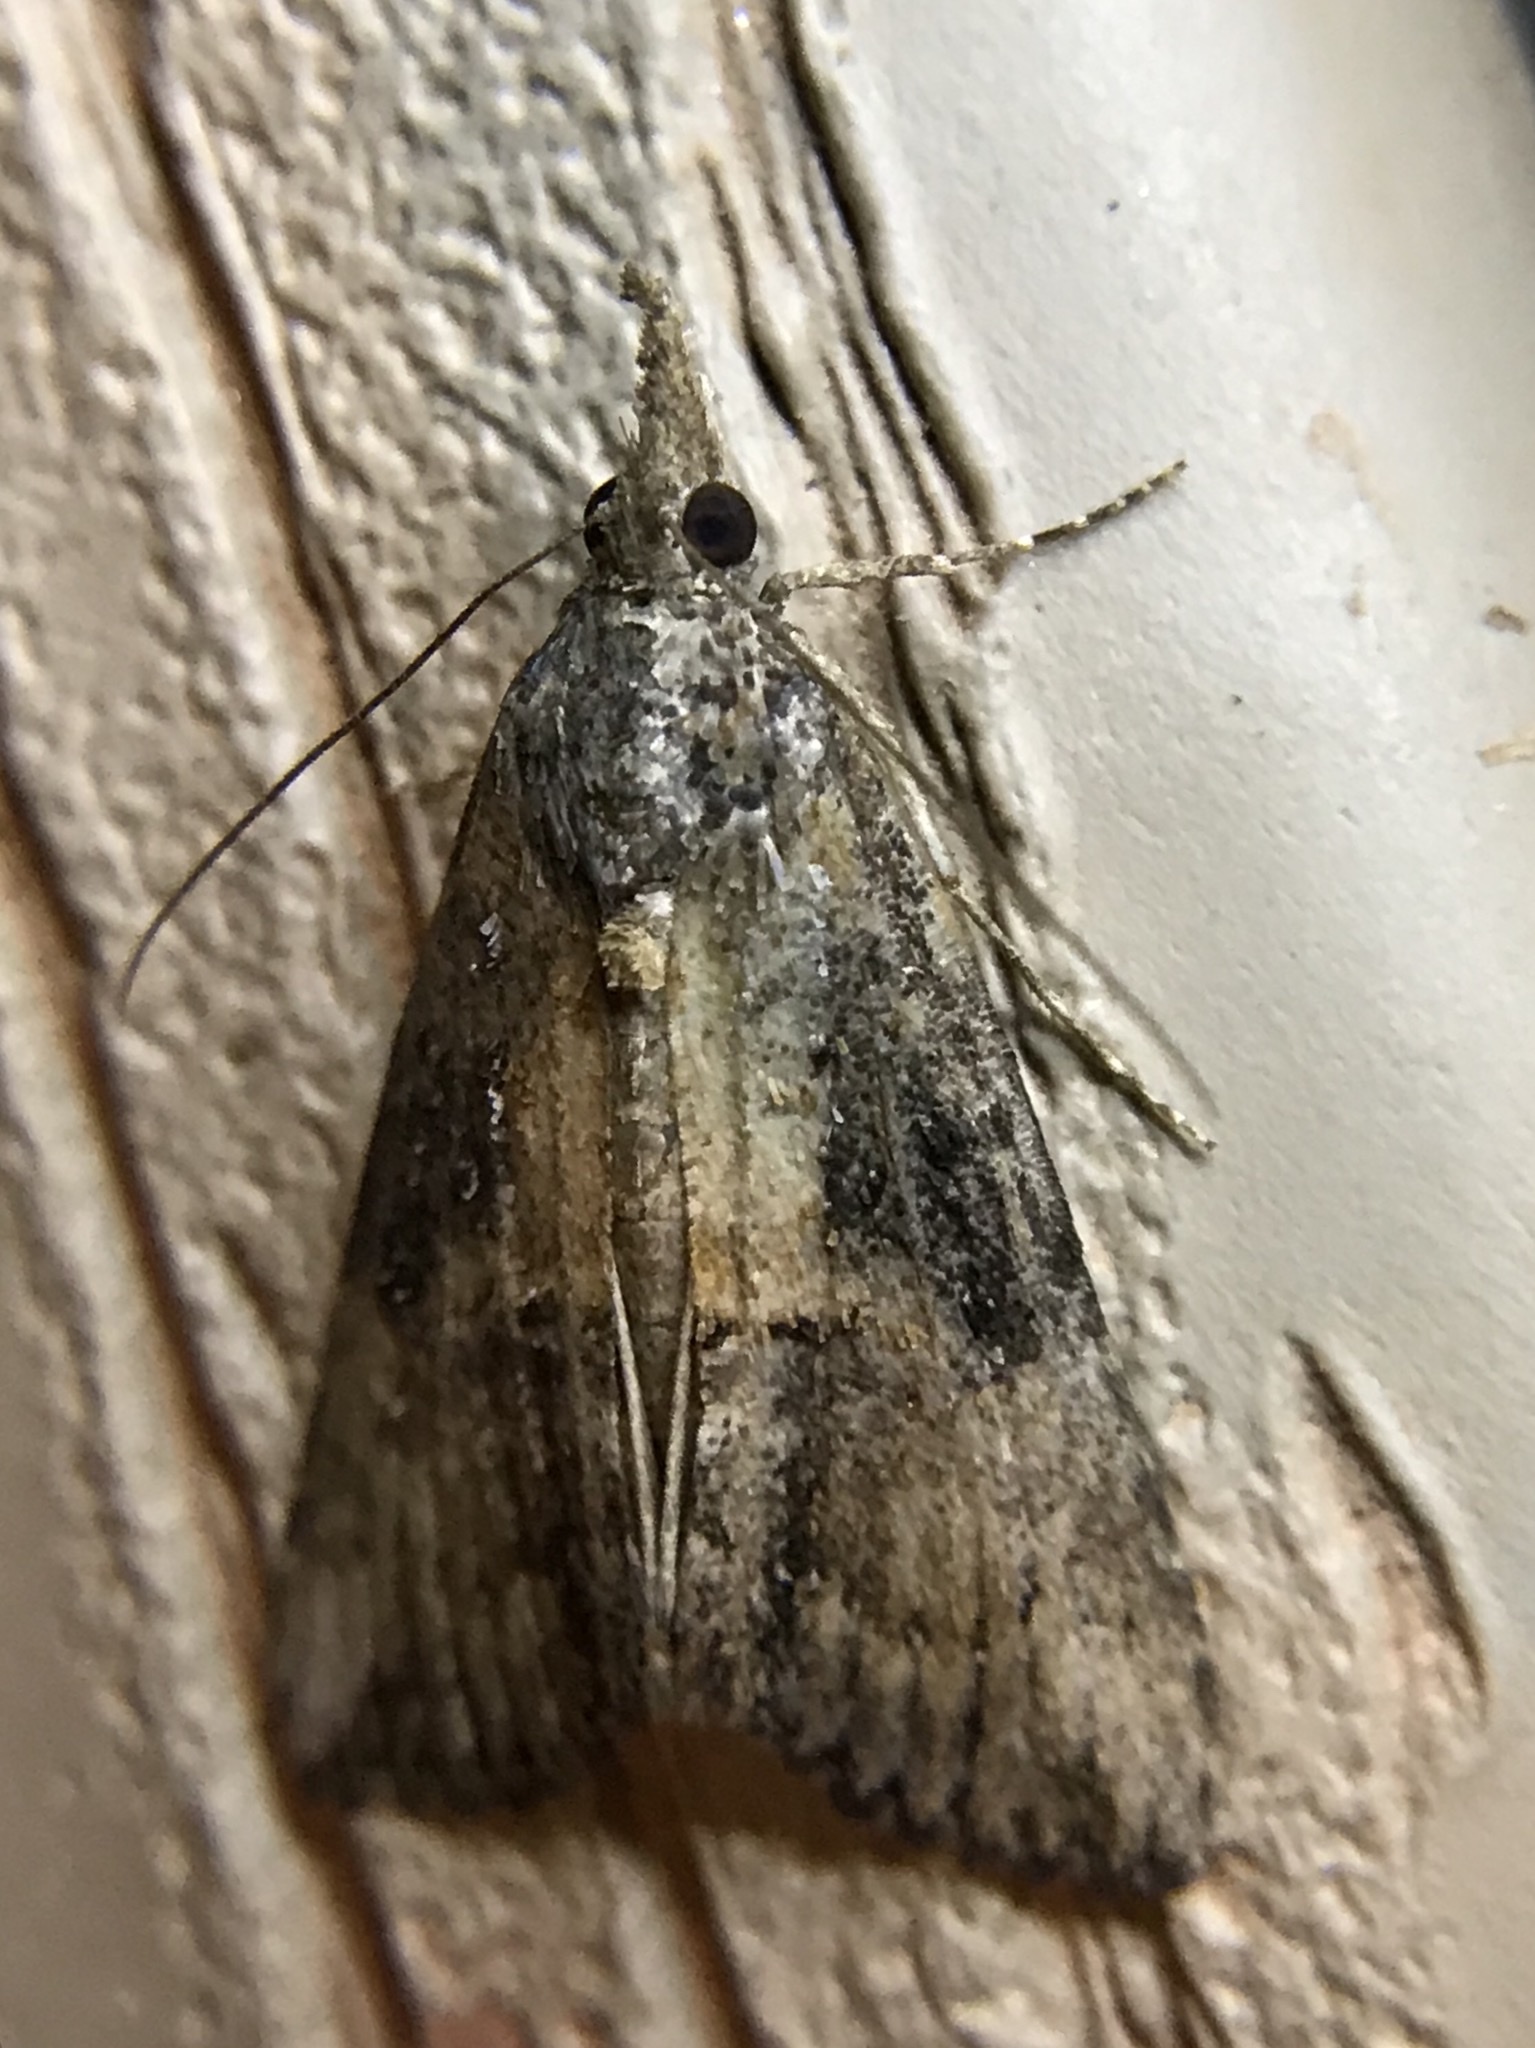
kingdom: Animalia
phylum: Arthropoda
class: Insecta
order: Lepidoptera
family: Erebidae
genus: Hypena
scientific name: Hypena scabra
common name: Green cloverworm
